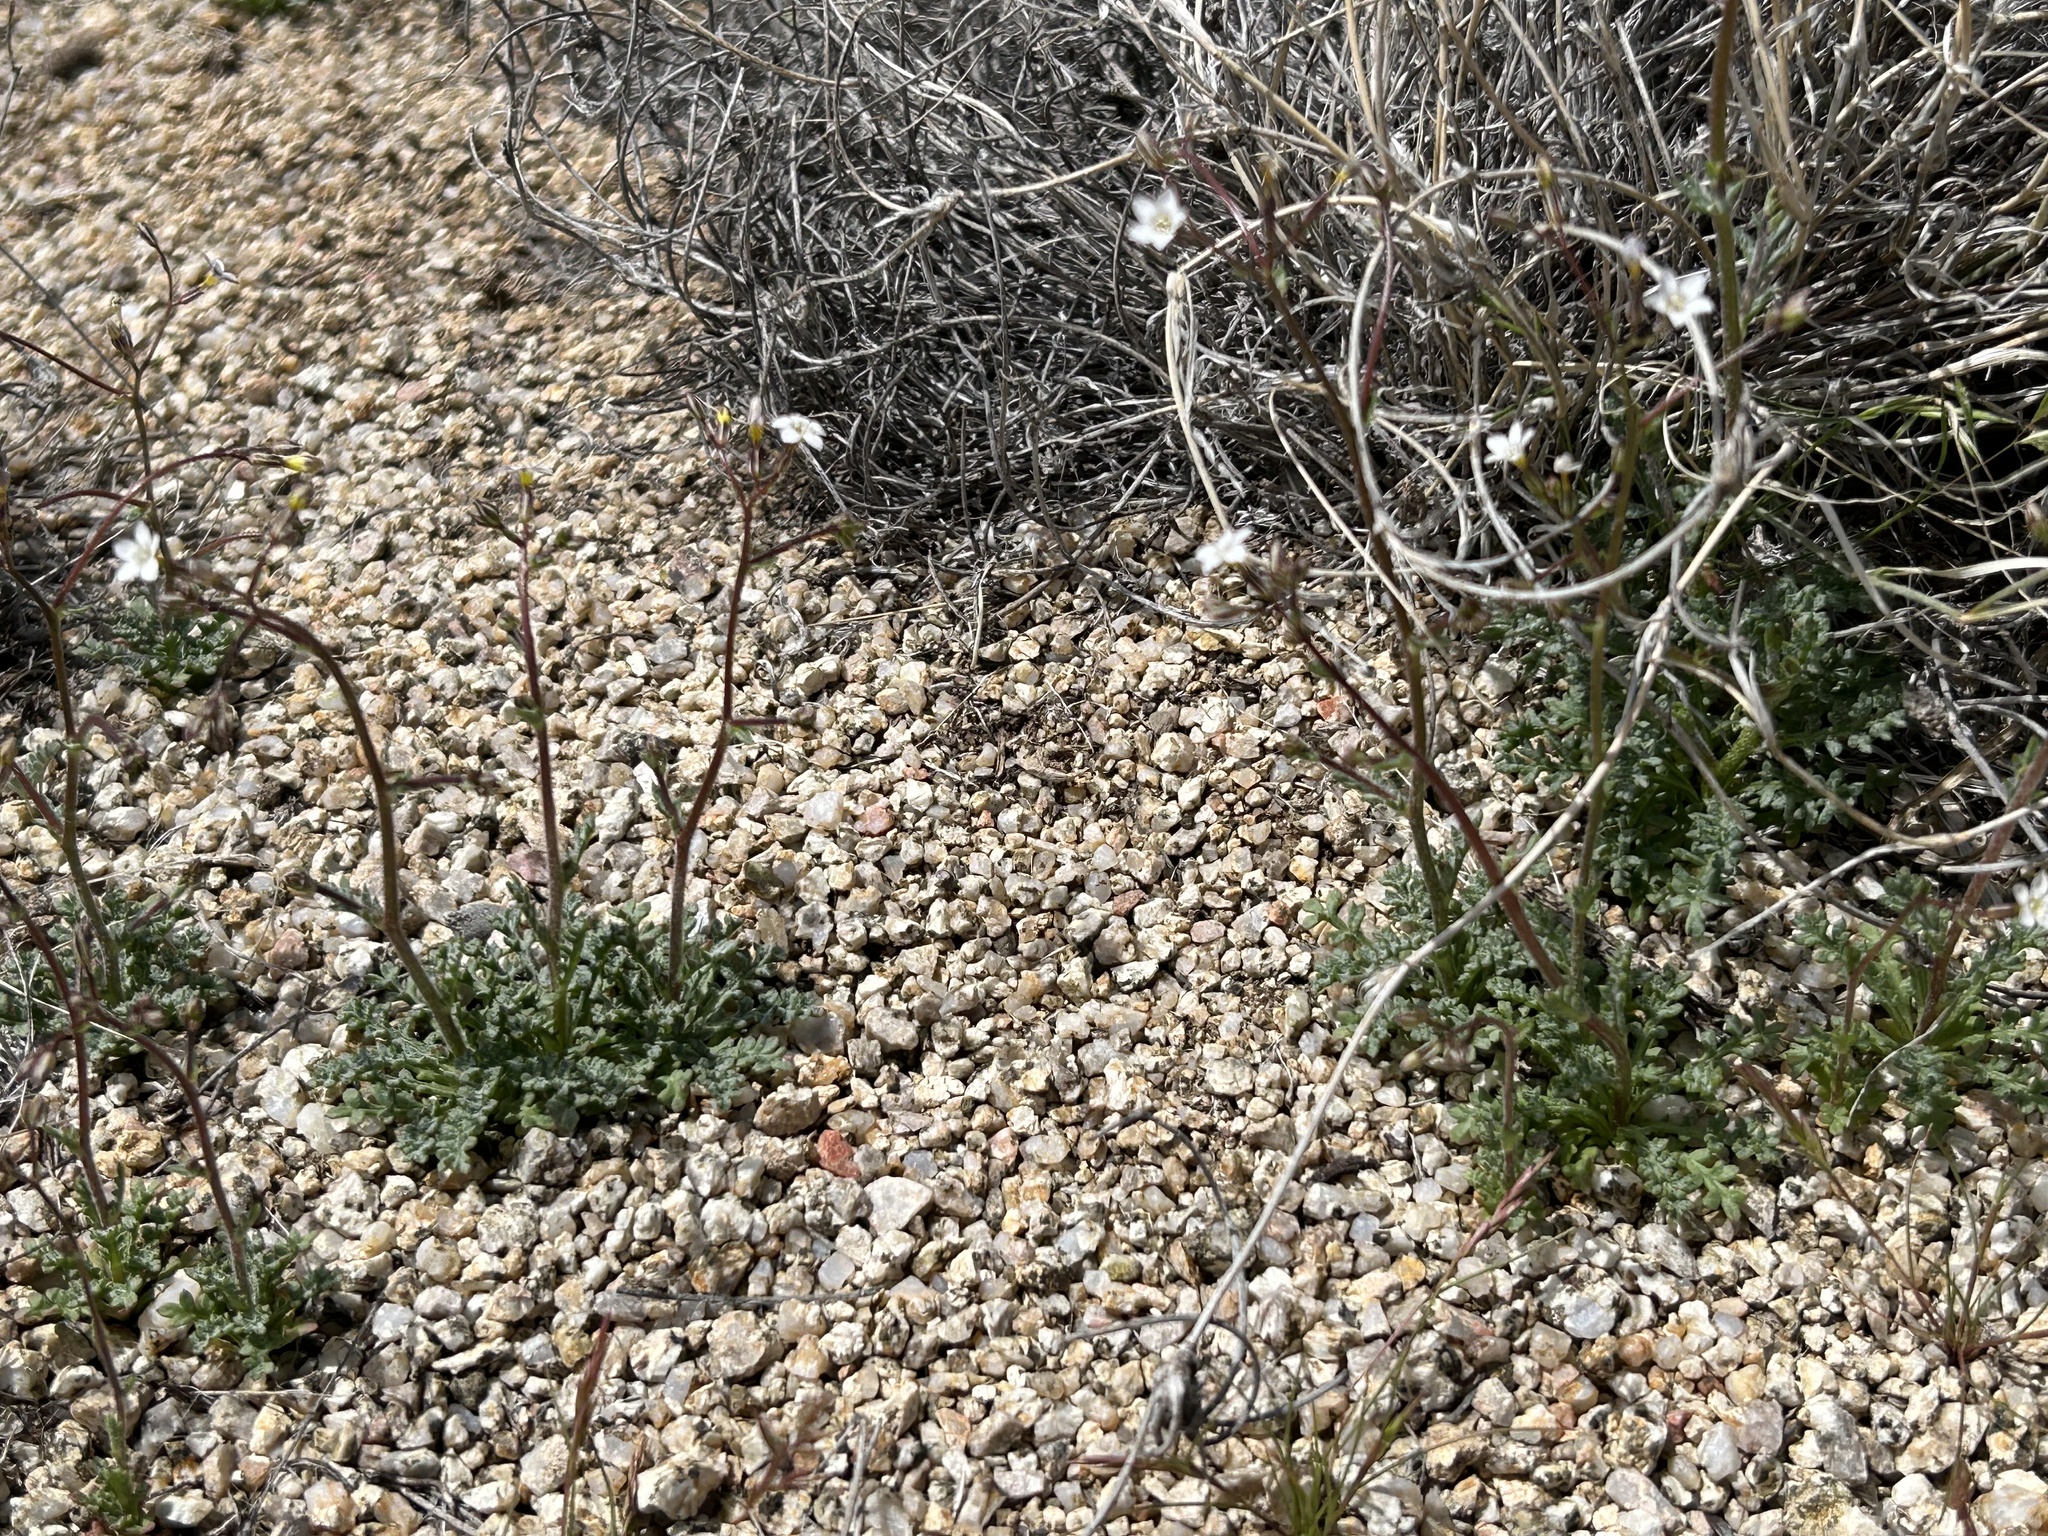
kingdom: Plantae
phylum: Tracheophyta
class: Magnoliopsida
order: Ericales
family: Polemoniaceae
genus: Gilia
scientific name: Gilia clokeyi
